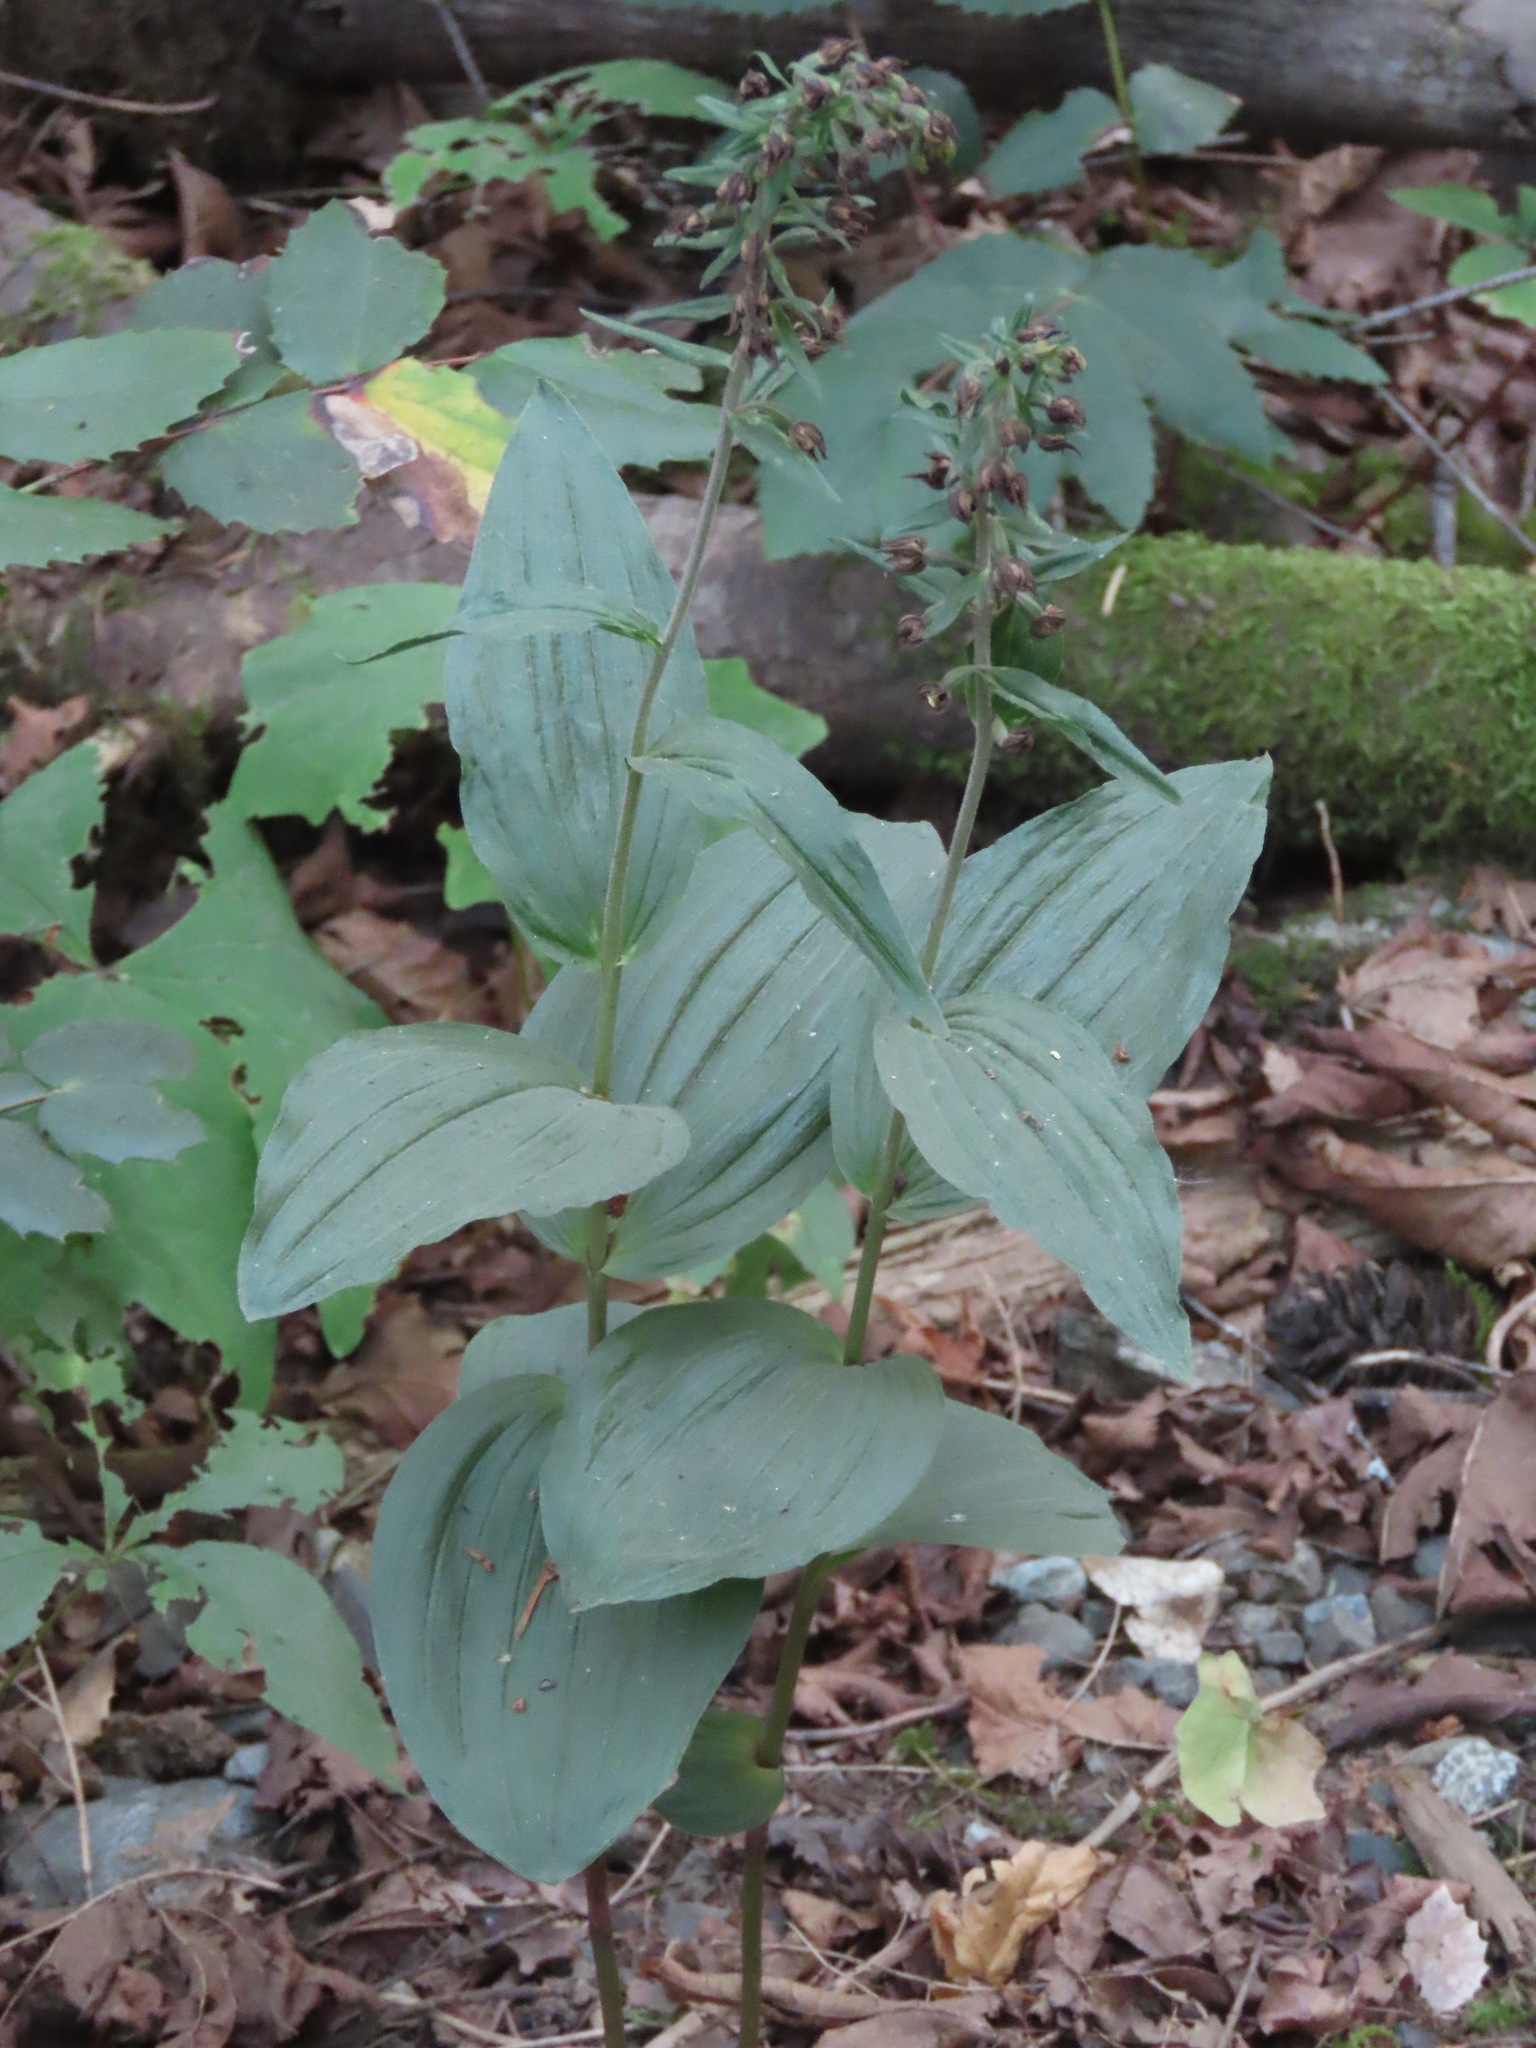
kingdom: Plantae
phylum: Tracheophyta
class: Liliopsida
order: Asparagales
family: Orchidaceae
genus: Epipactis
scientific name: Epipactis helleborine
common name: Broad-leaved helleborine
